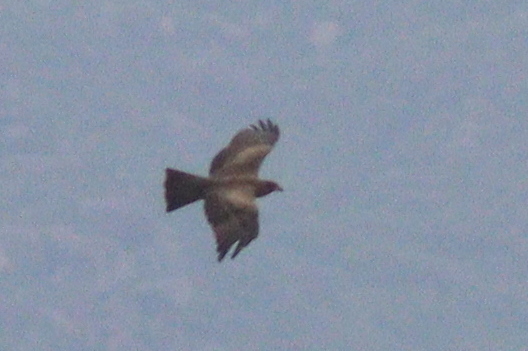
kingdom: Animalia
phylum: Chordata
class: Aves
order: Accipitriformes
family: Accipitridae
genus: Milvus
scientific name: Milvus migrans
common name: Black kite
